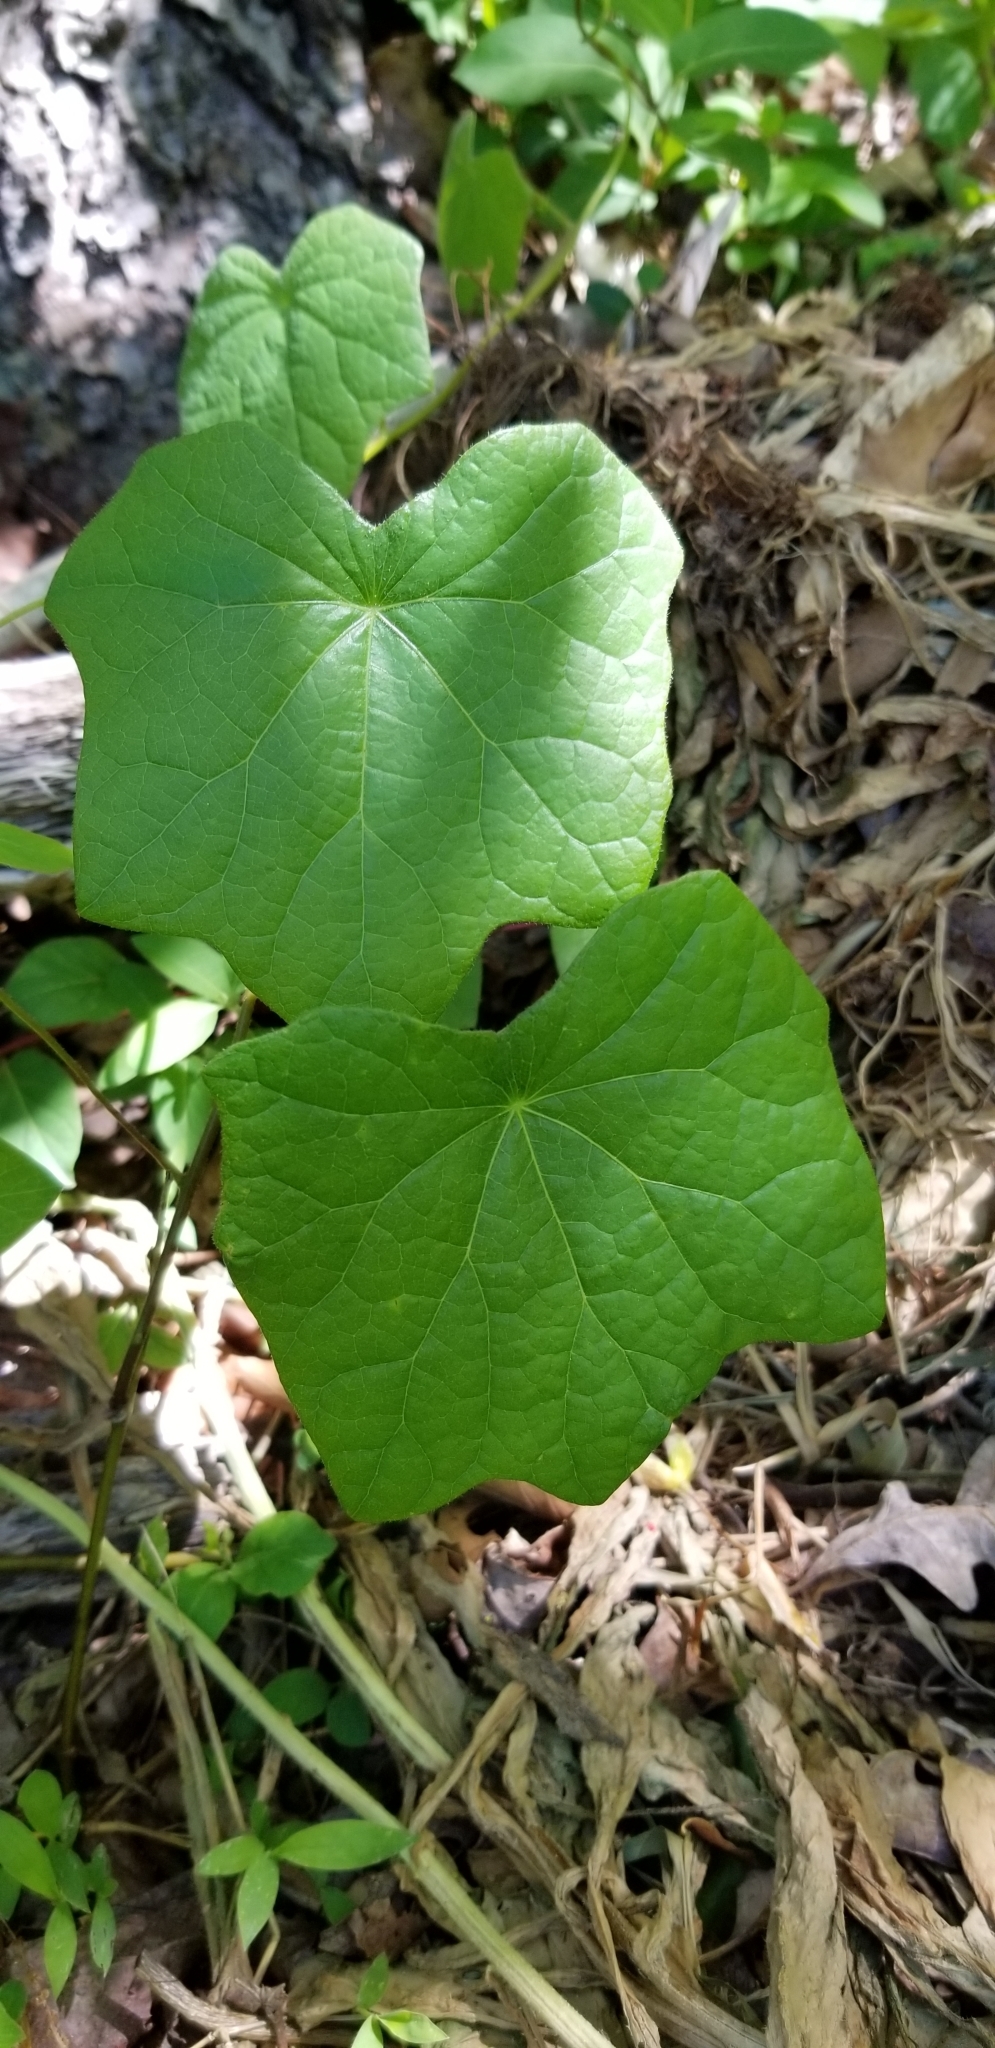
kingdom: Plantae
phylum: Tracheophyta
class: Magnoliopsida
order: Ranunculales
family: Menispermaceae
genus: Menispermum
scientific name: Menispermum canadense
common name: Moonseed
